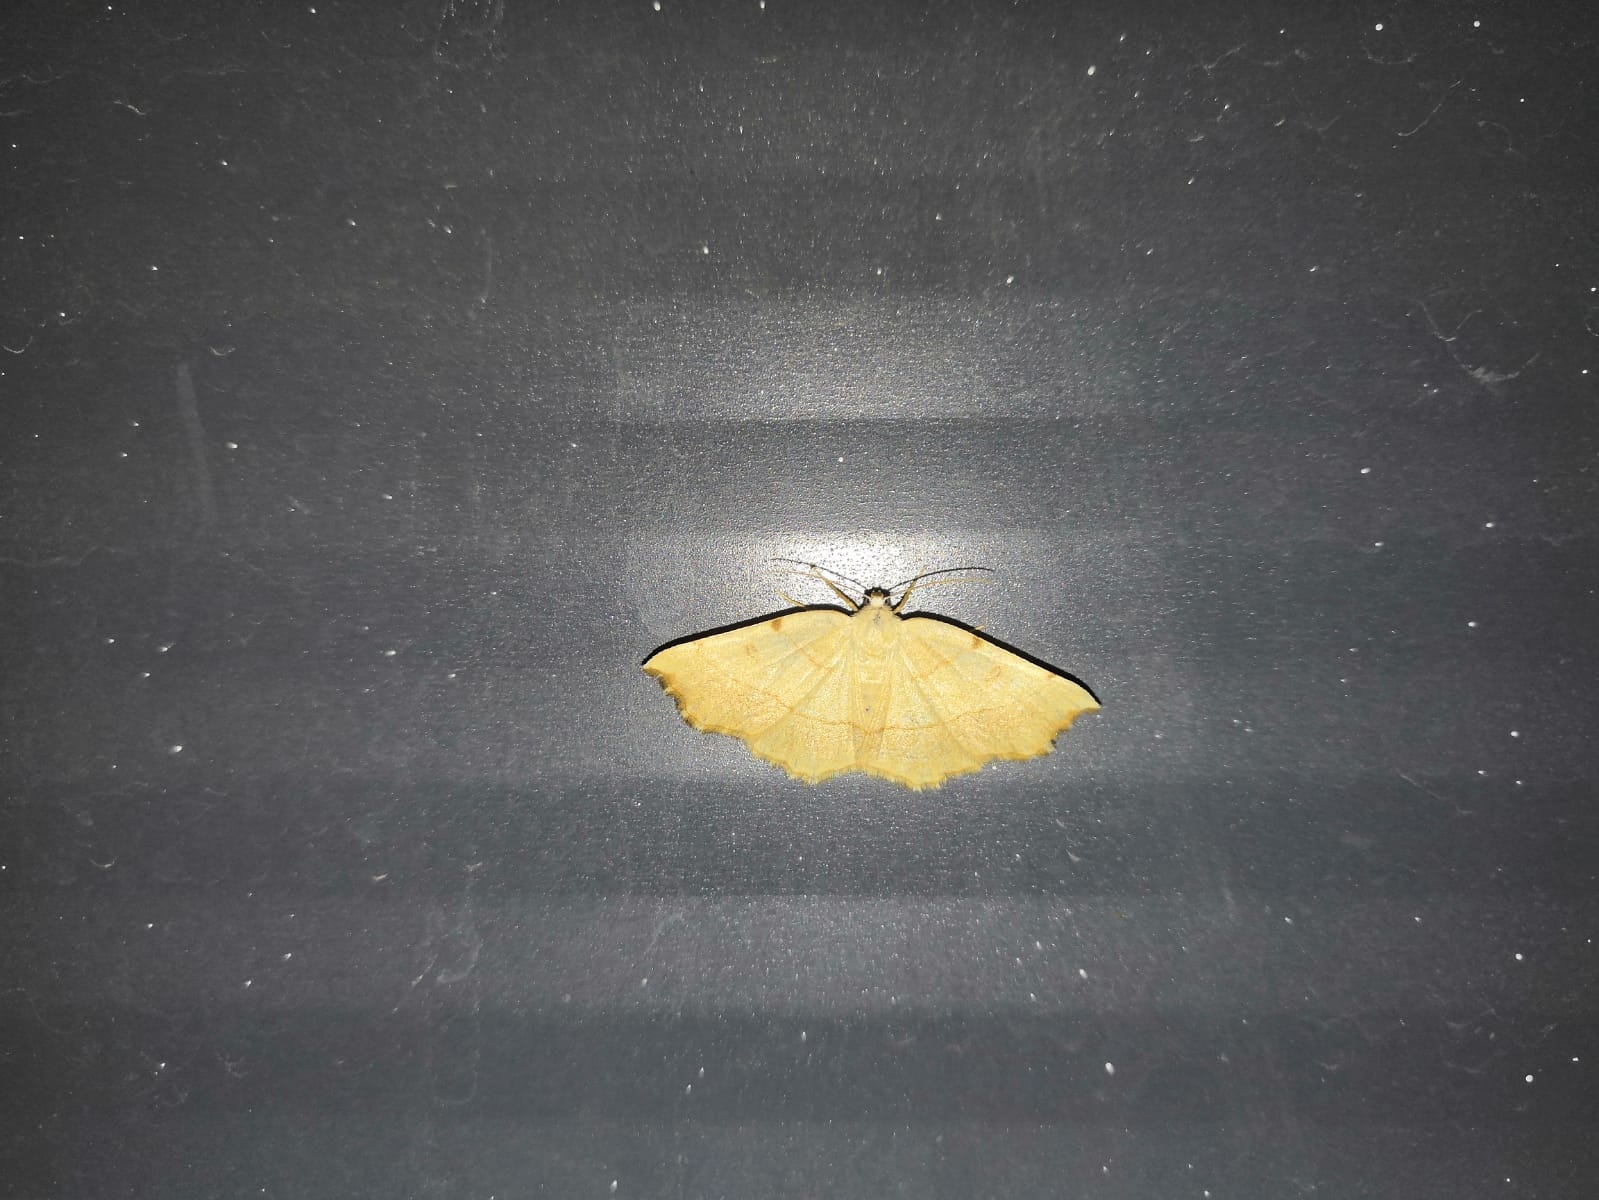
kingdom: Animalia
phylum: Arthropoda
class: Insecta
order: Lepidoptera
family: Geometridae
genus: Eilicrinia
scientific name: Eilicrinia trinotata
